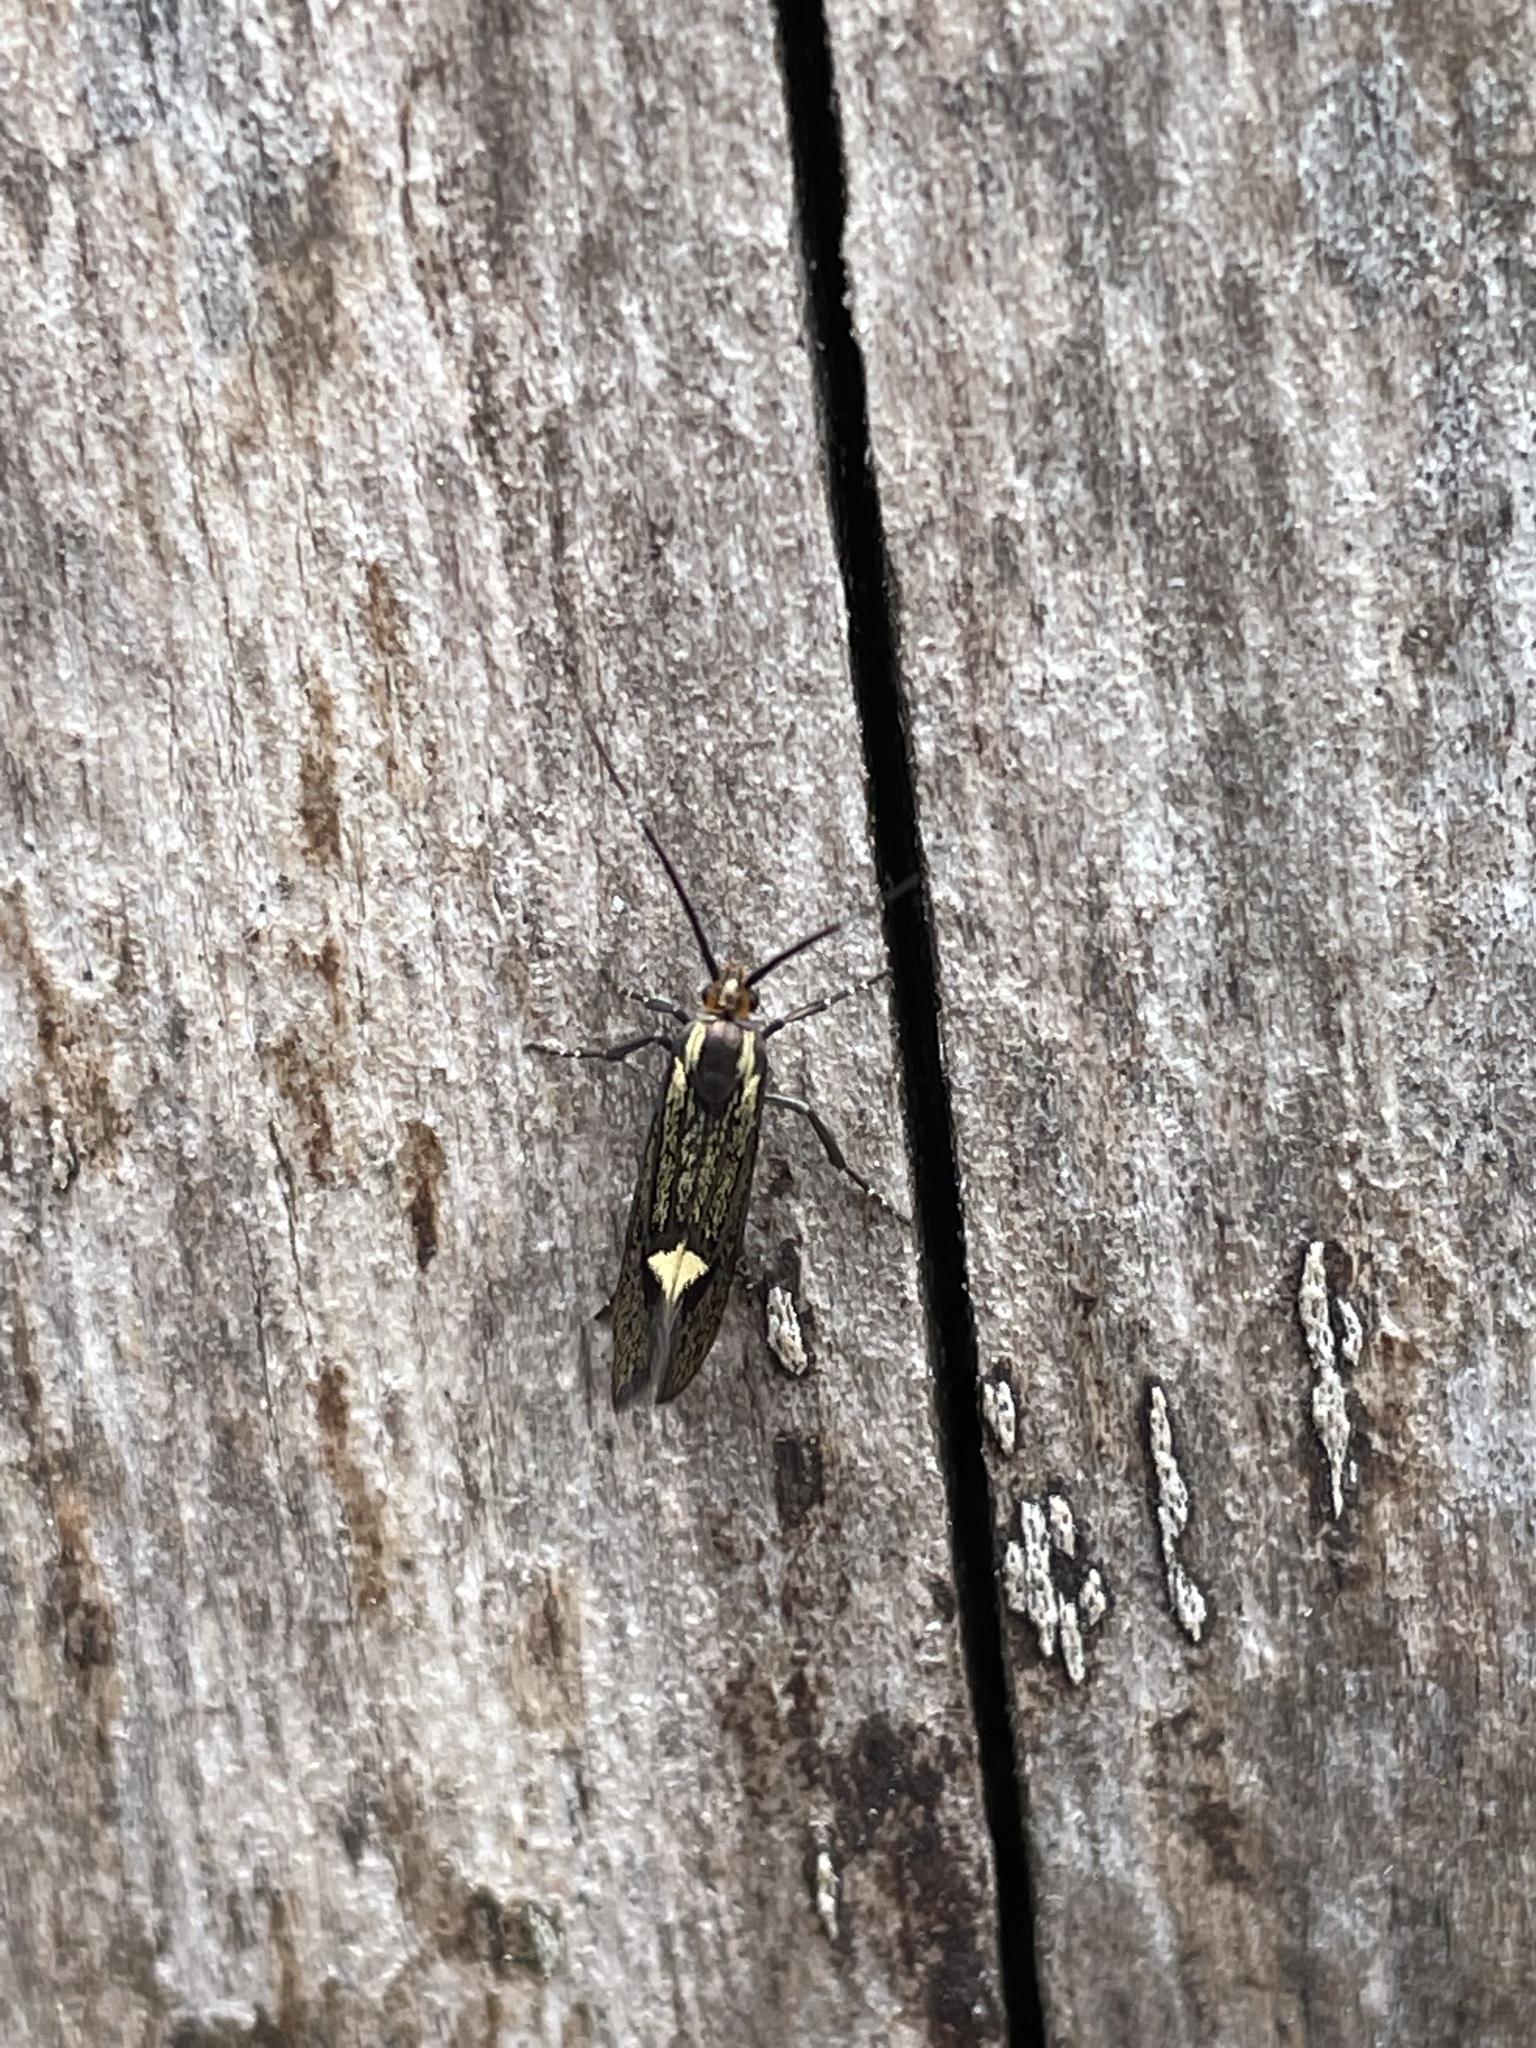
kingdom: Animalia
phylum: Arthropoda
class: Insecta
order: Lepidoptera
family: Oecophoridae
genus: Dafa
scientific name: Dafa Esperia sulphurella
